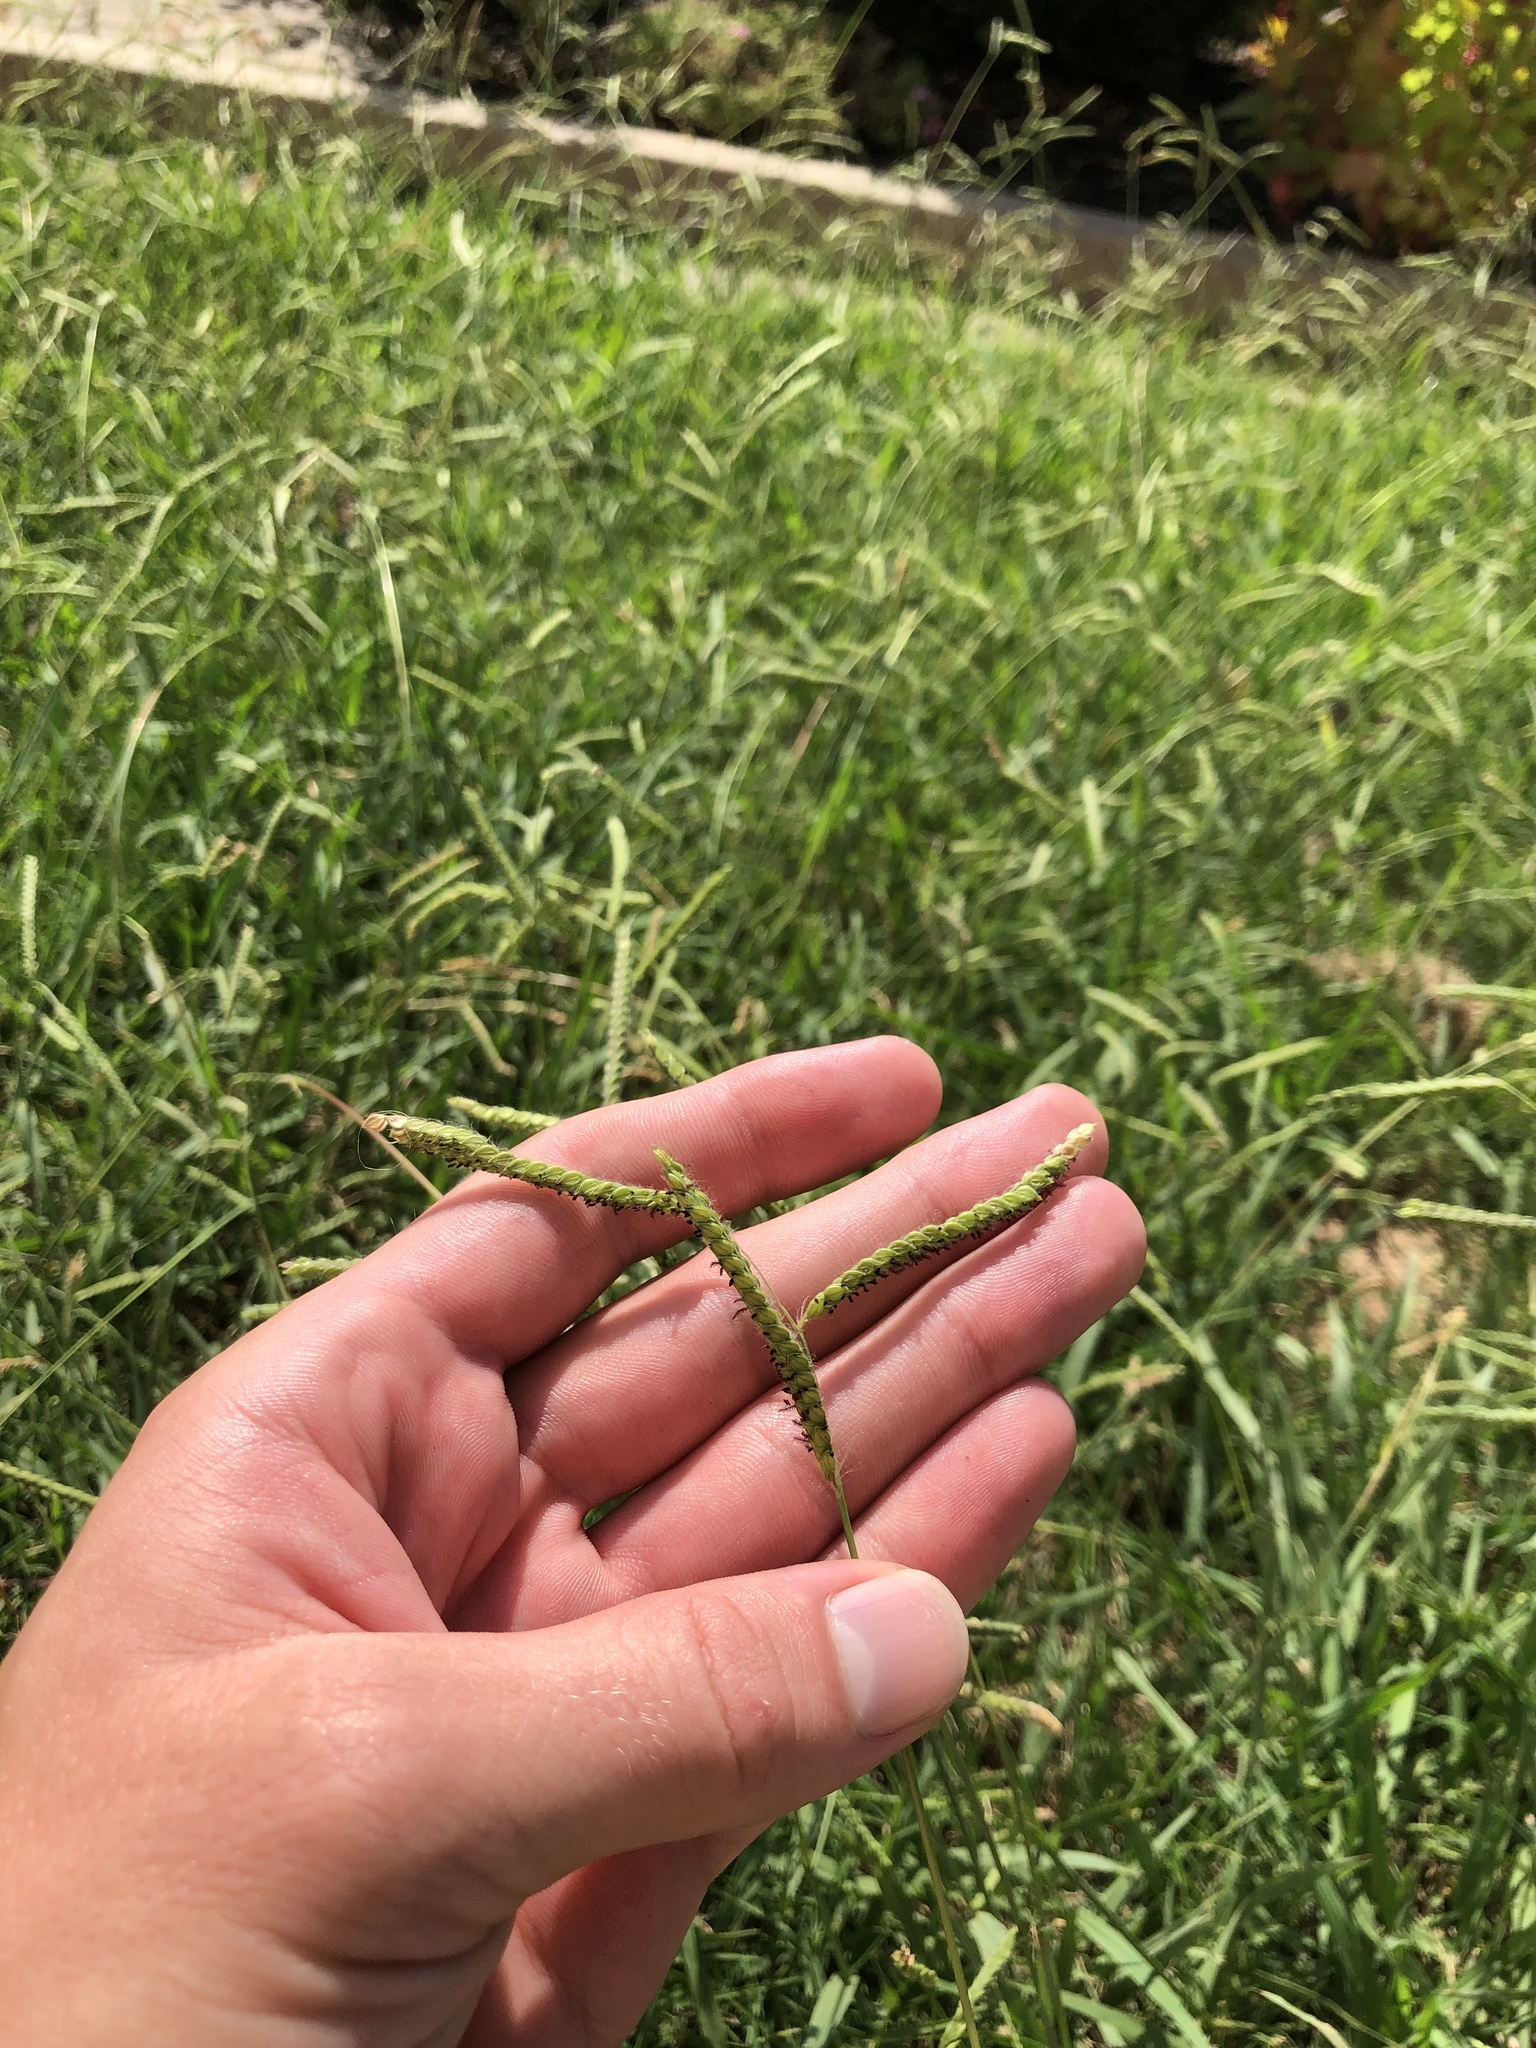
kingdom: Plantae
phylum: Tracheophyta
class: Liliopsida
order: Poales
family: Poaceae
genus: Paspalum
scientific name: Paspalum dilatatum
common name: Dallisgrass
